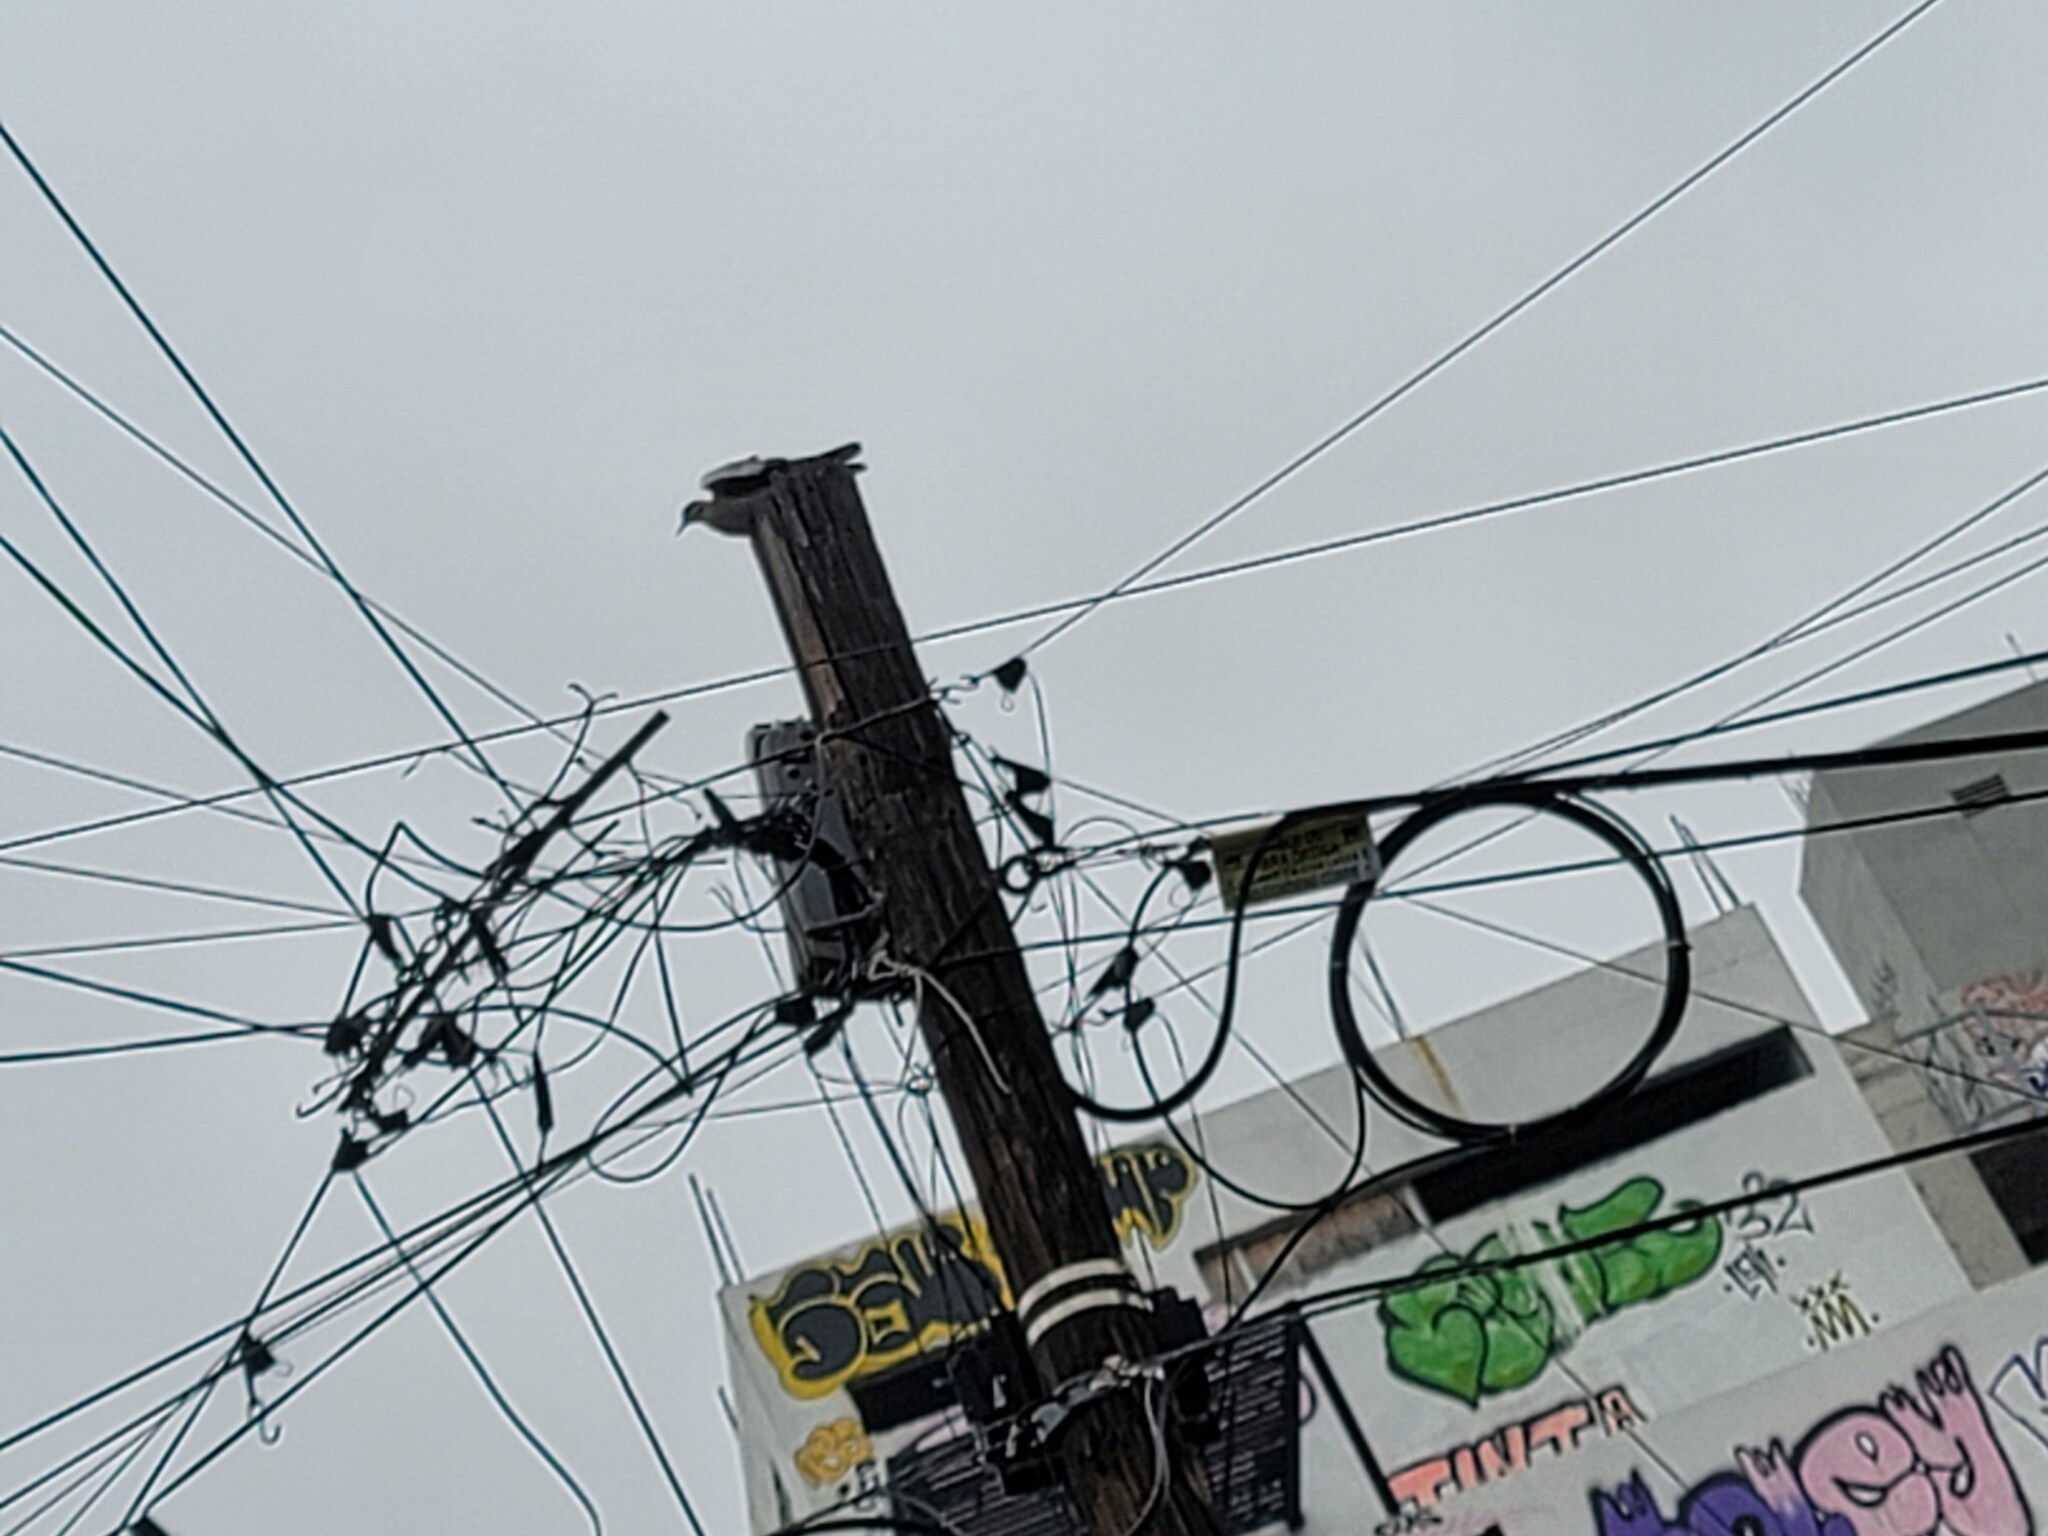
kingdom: Animalia
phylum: Chordata
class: Aves
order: Columbiformes
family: Columbidae
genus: Zenaida
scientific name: Zenaida asiatica
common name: White-winged dove
